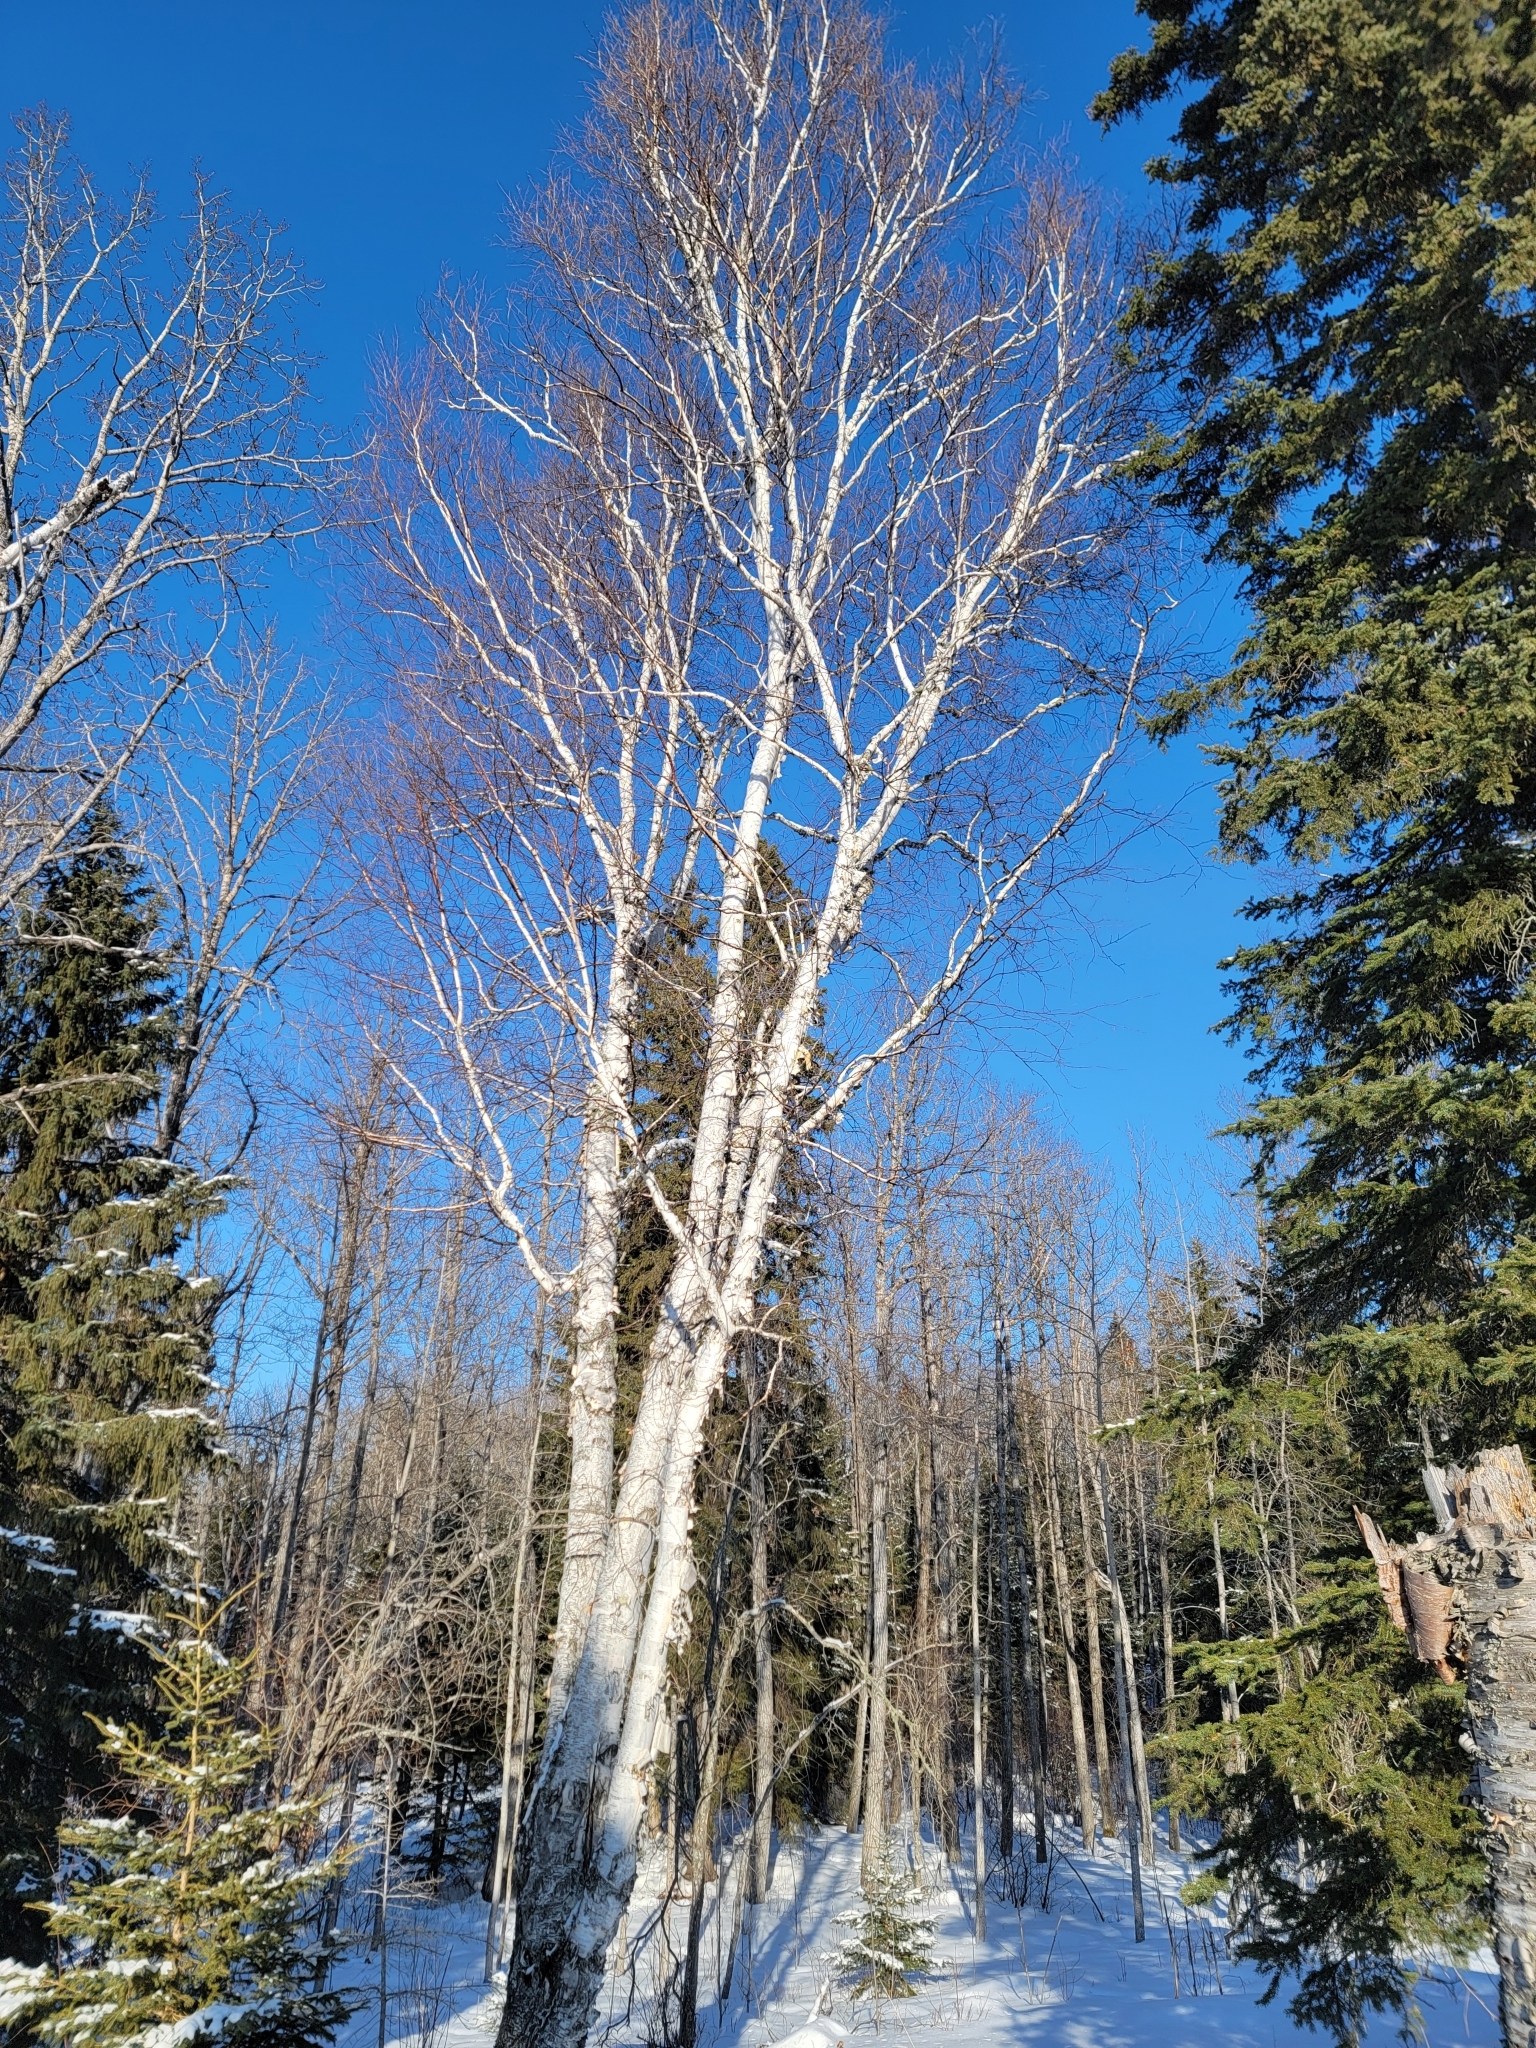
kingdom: Plantae
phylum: Tracheophyta
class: Magnoliopsida
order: Fagales
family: Betulaceae
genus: Betula
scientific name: Betula papyrifera
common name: Paper birch
